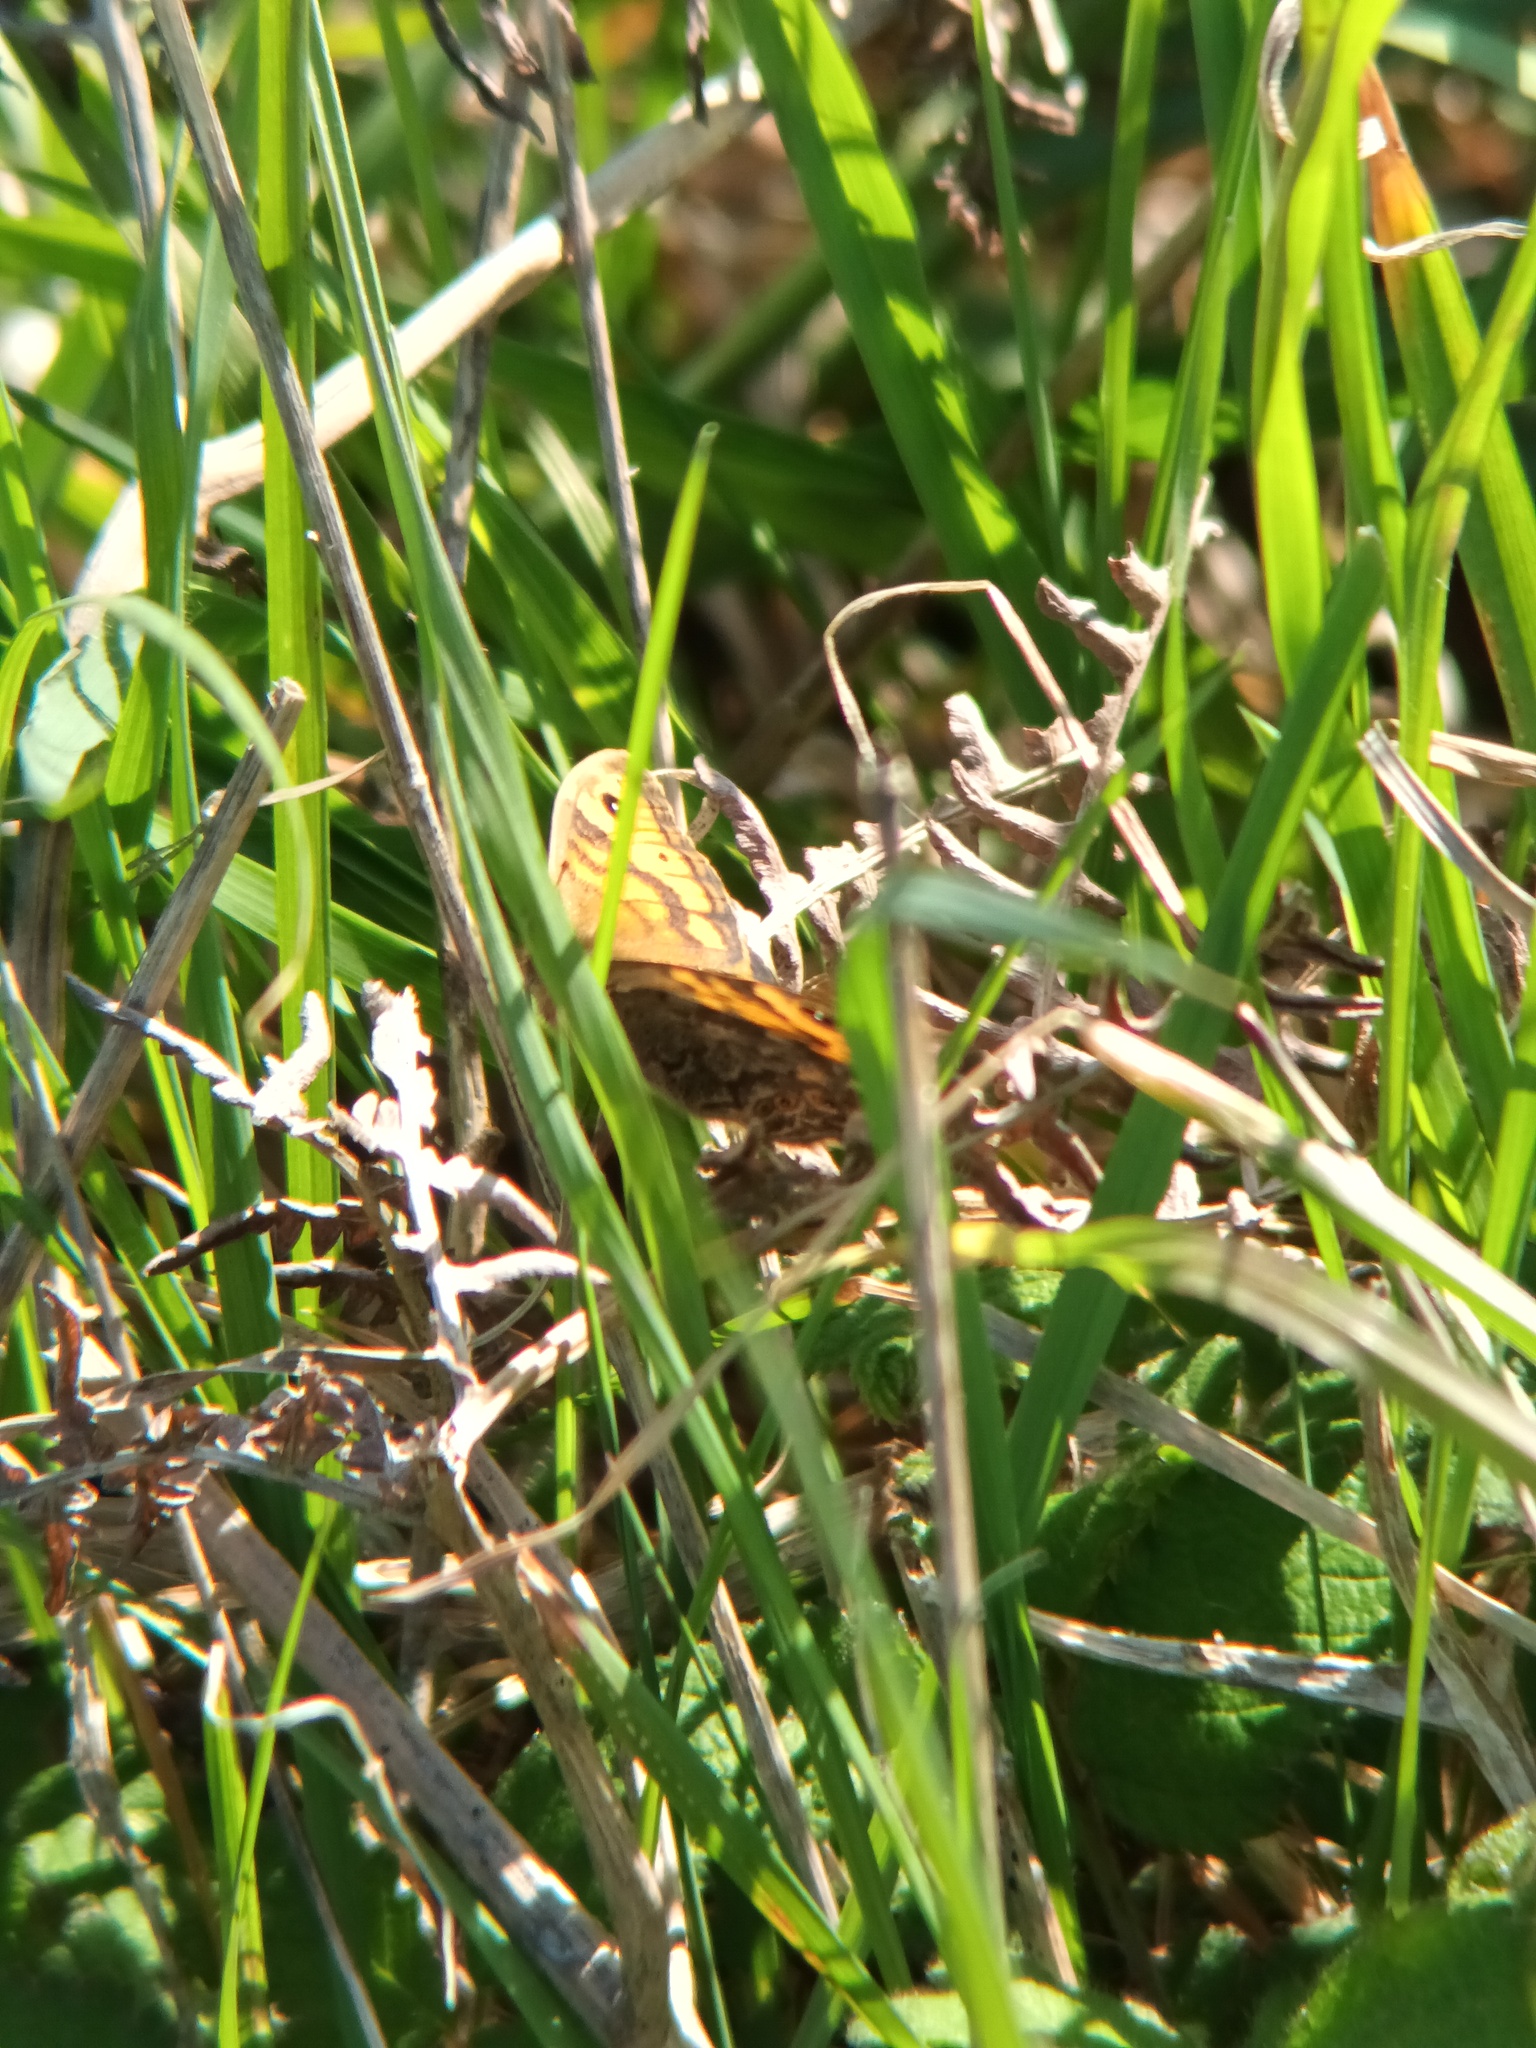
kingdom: Animalia
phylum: Arthropoda
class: Insecta
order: Lepidoptera
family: Nymphalidae
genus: Pararge
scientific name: Pararge Lasiommata megera
